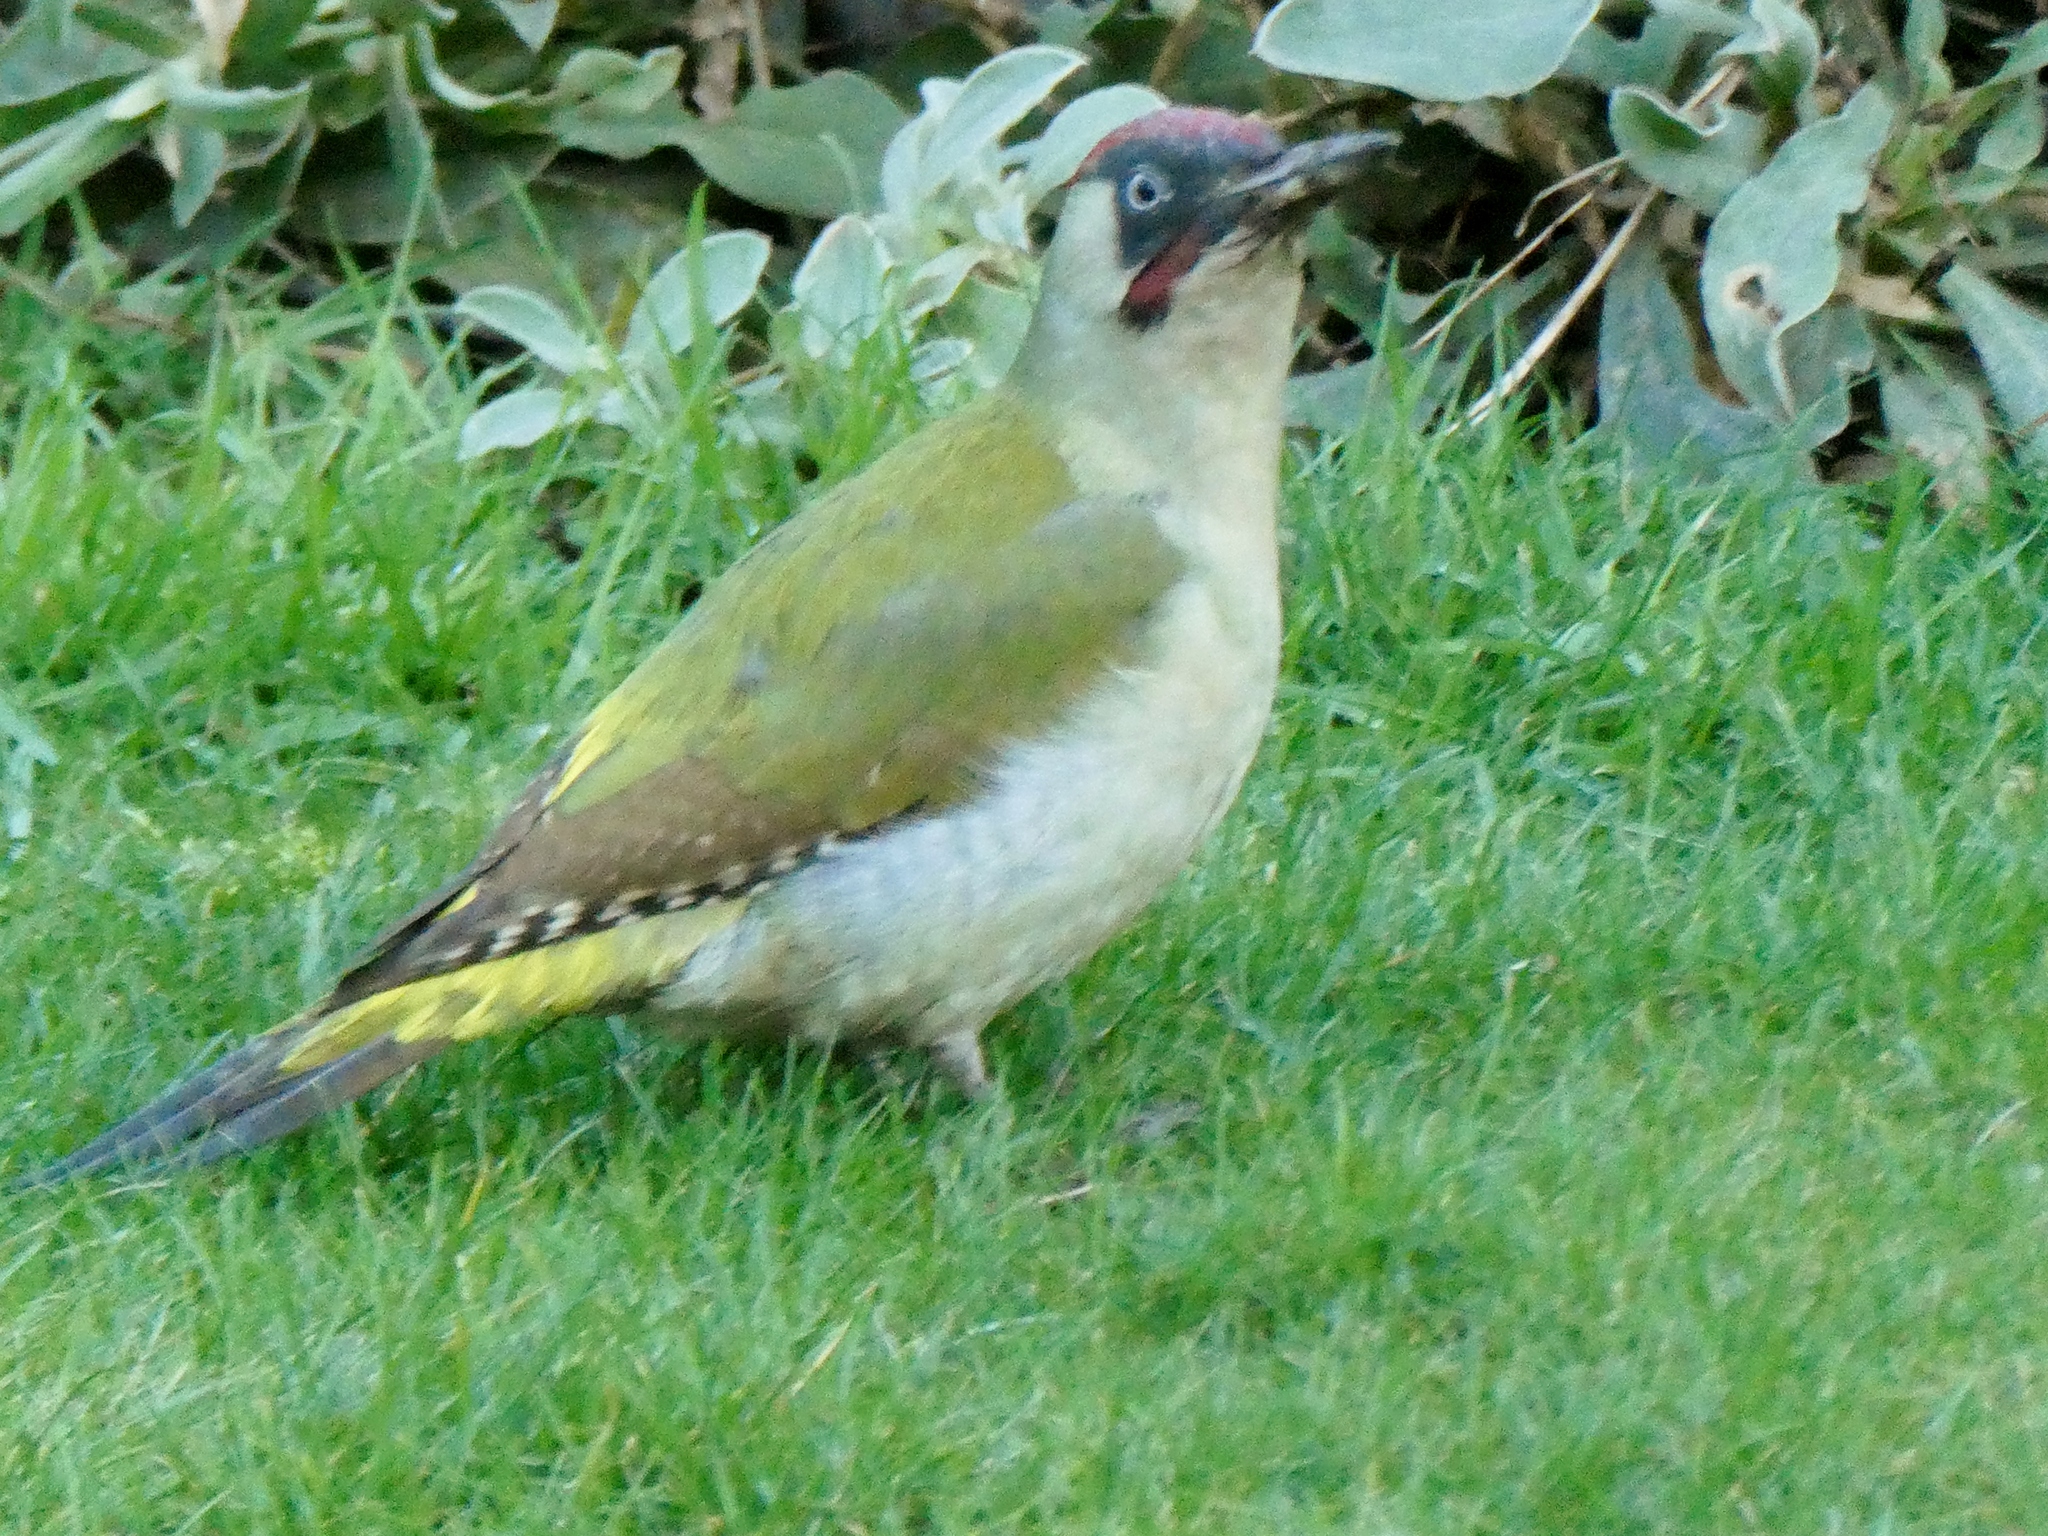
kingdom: Animalia
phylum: Chordata
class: Aves
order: Piciformes
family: Picidae
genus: Picus
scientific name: Picus viridis
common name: European green woodpecker
